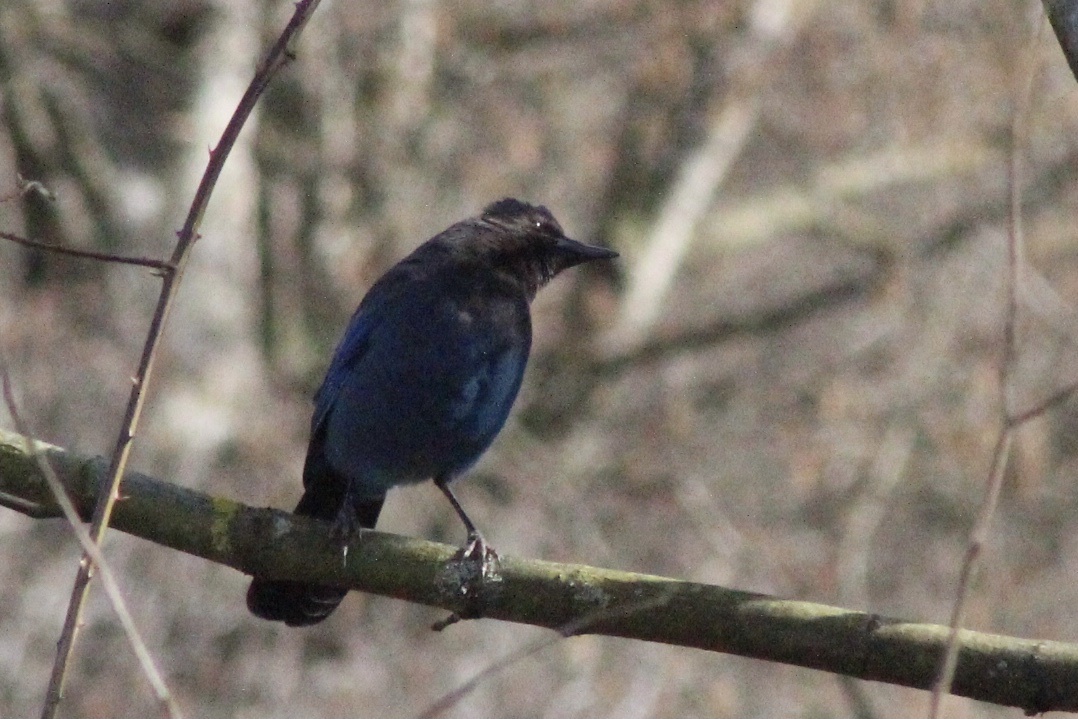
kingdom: Animalia
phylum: Chordata
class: Aves
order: Passeriformes
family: Corvidae
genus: Cyanocitta
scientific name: Cyanocitta stelleri
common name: Steller's jay
